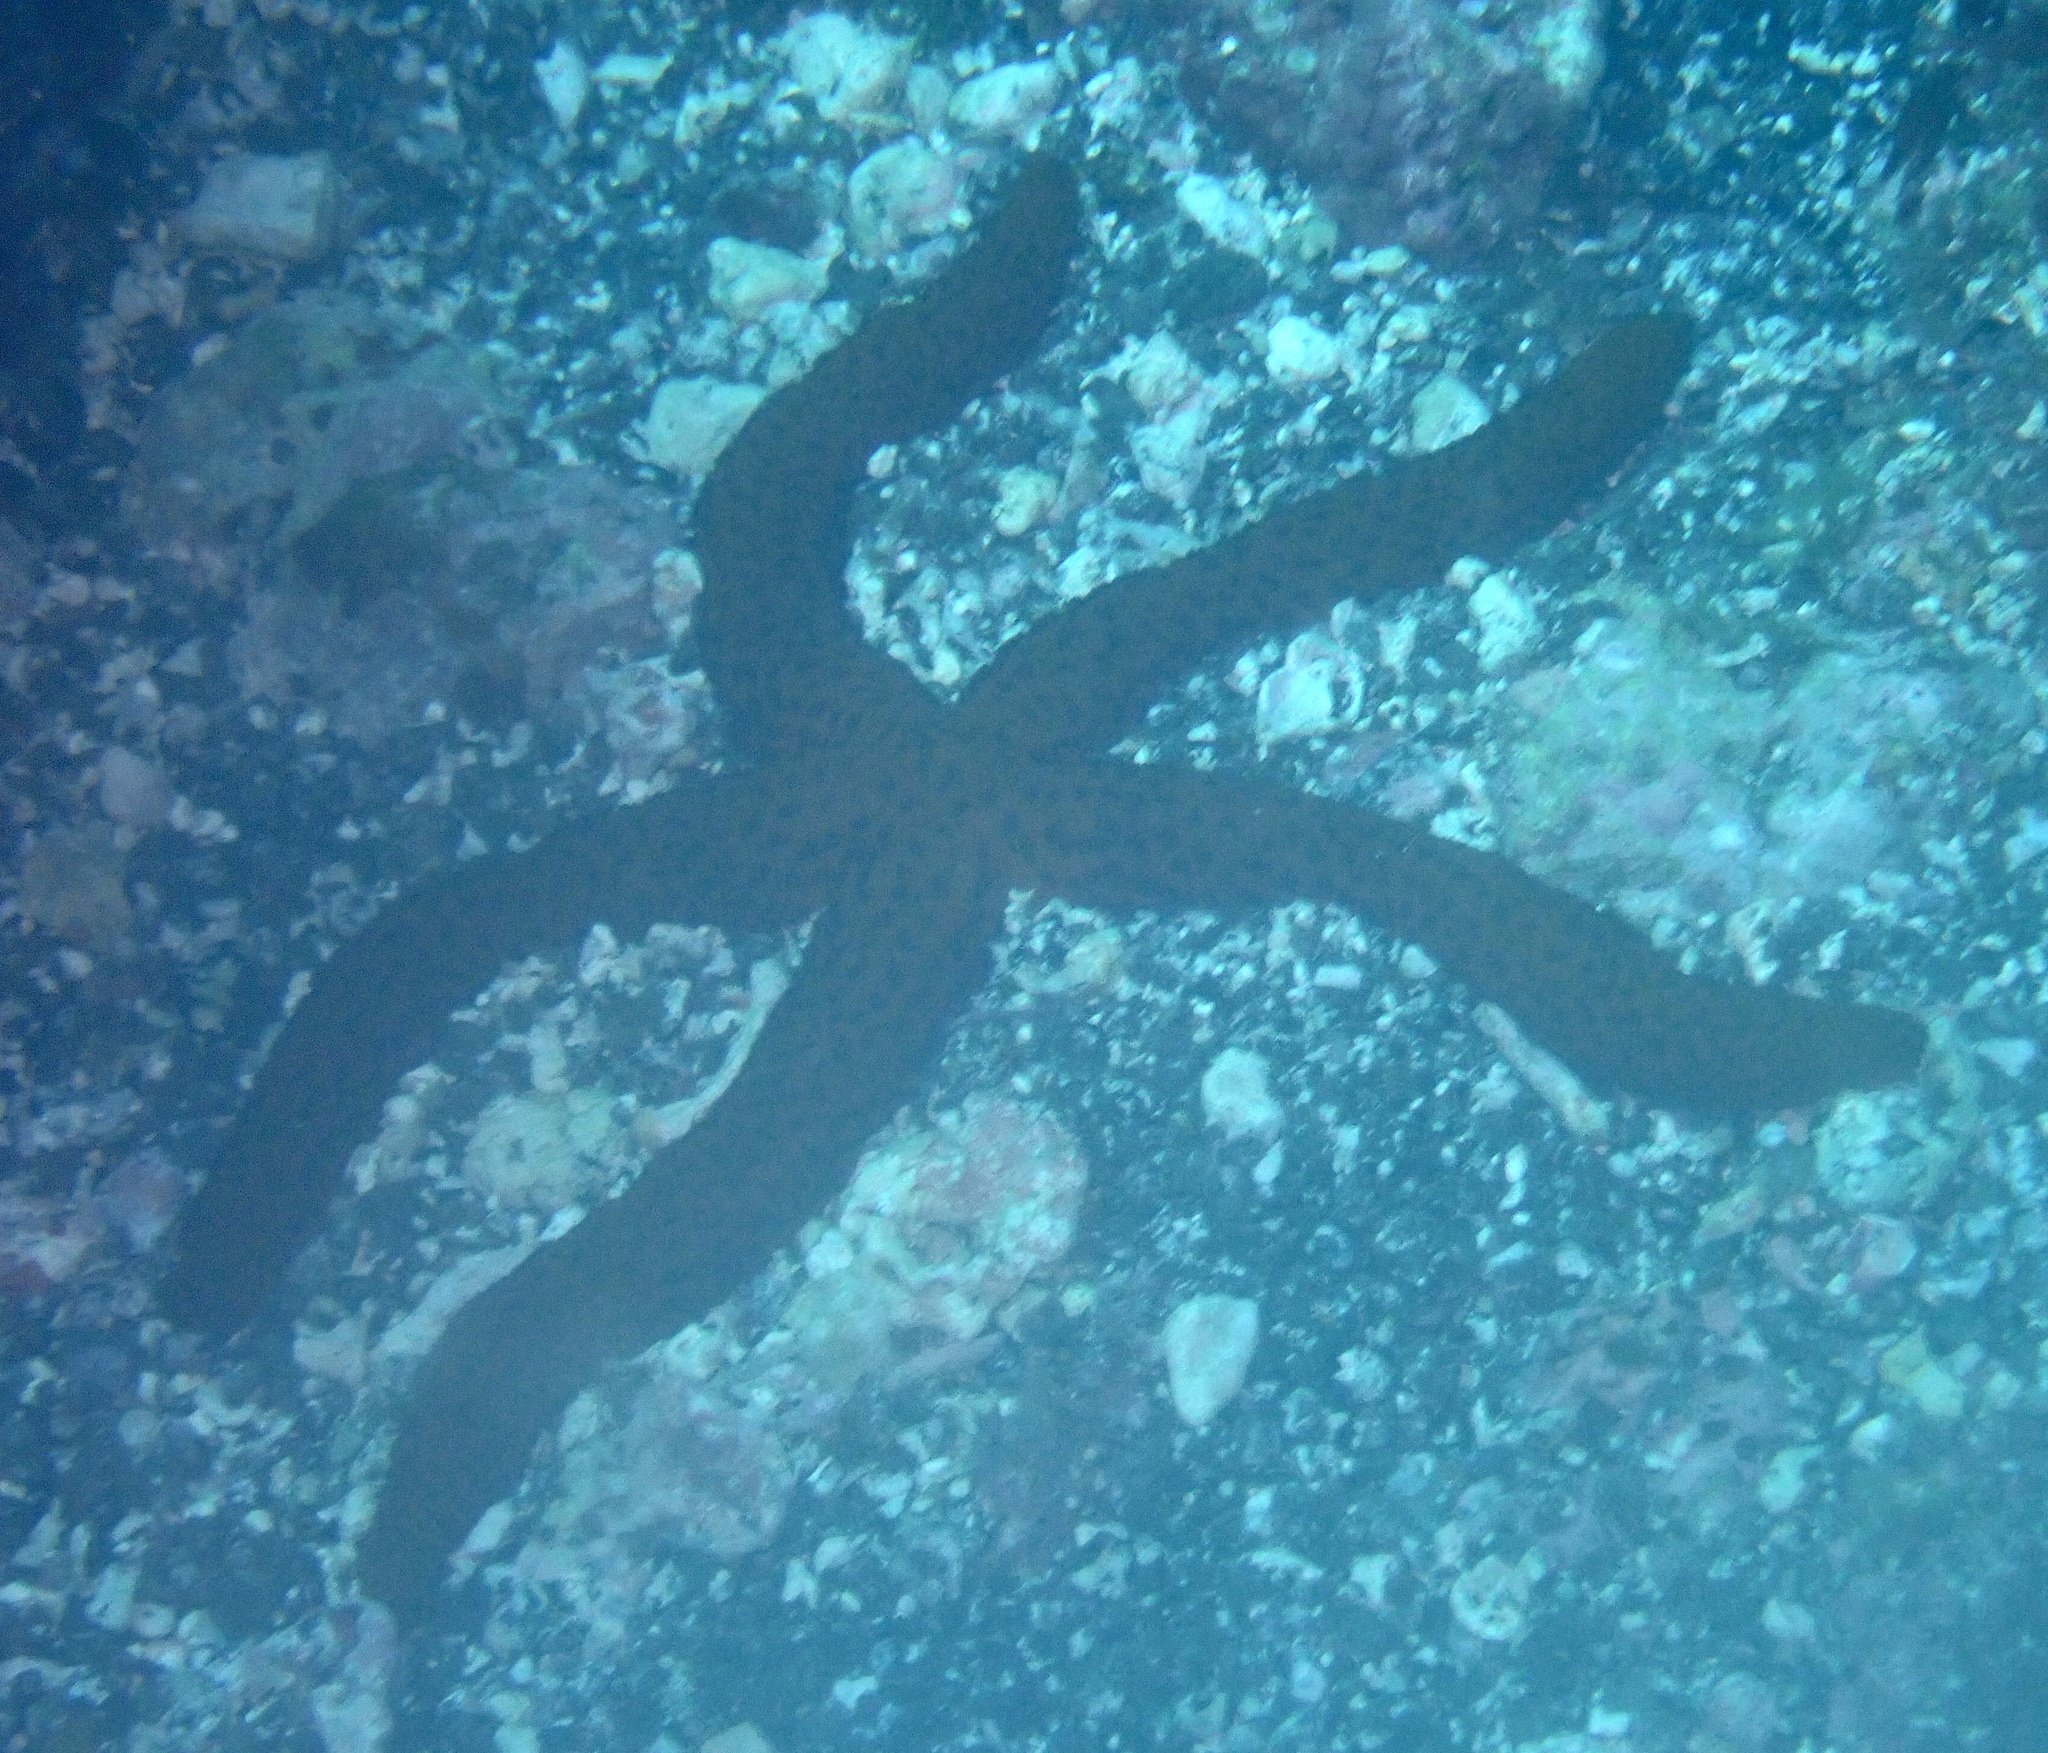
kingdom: Animalia
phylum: Echinodermata
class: Asteroidea
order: Spinulosida
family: Echinasteridae
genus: Echinaster
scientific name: Echinaster sepositus
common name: Red starfish
